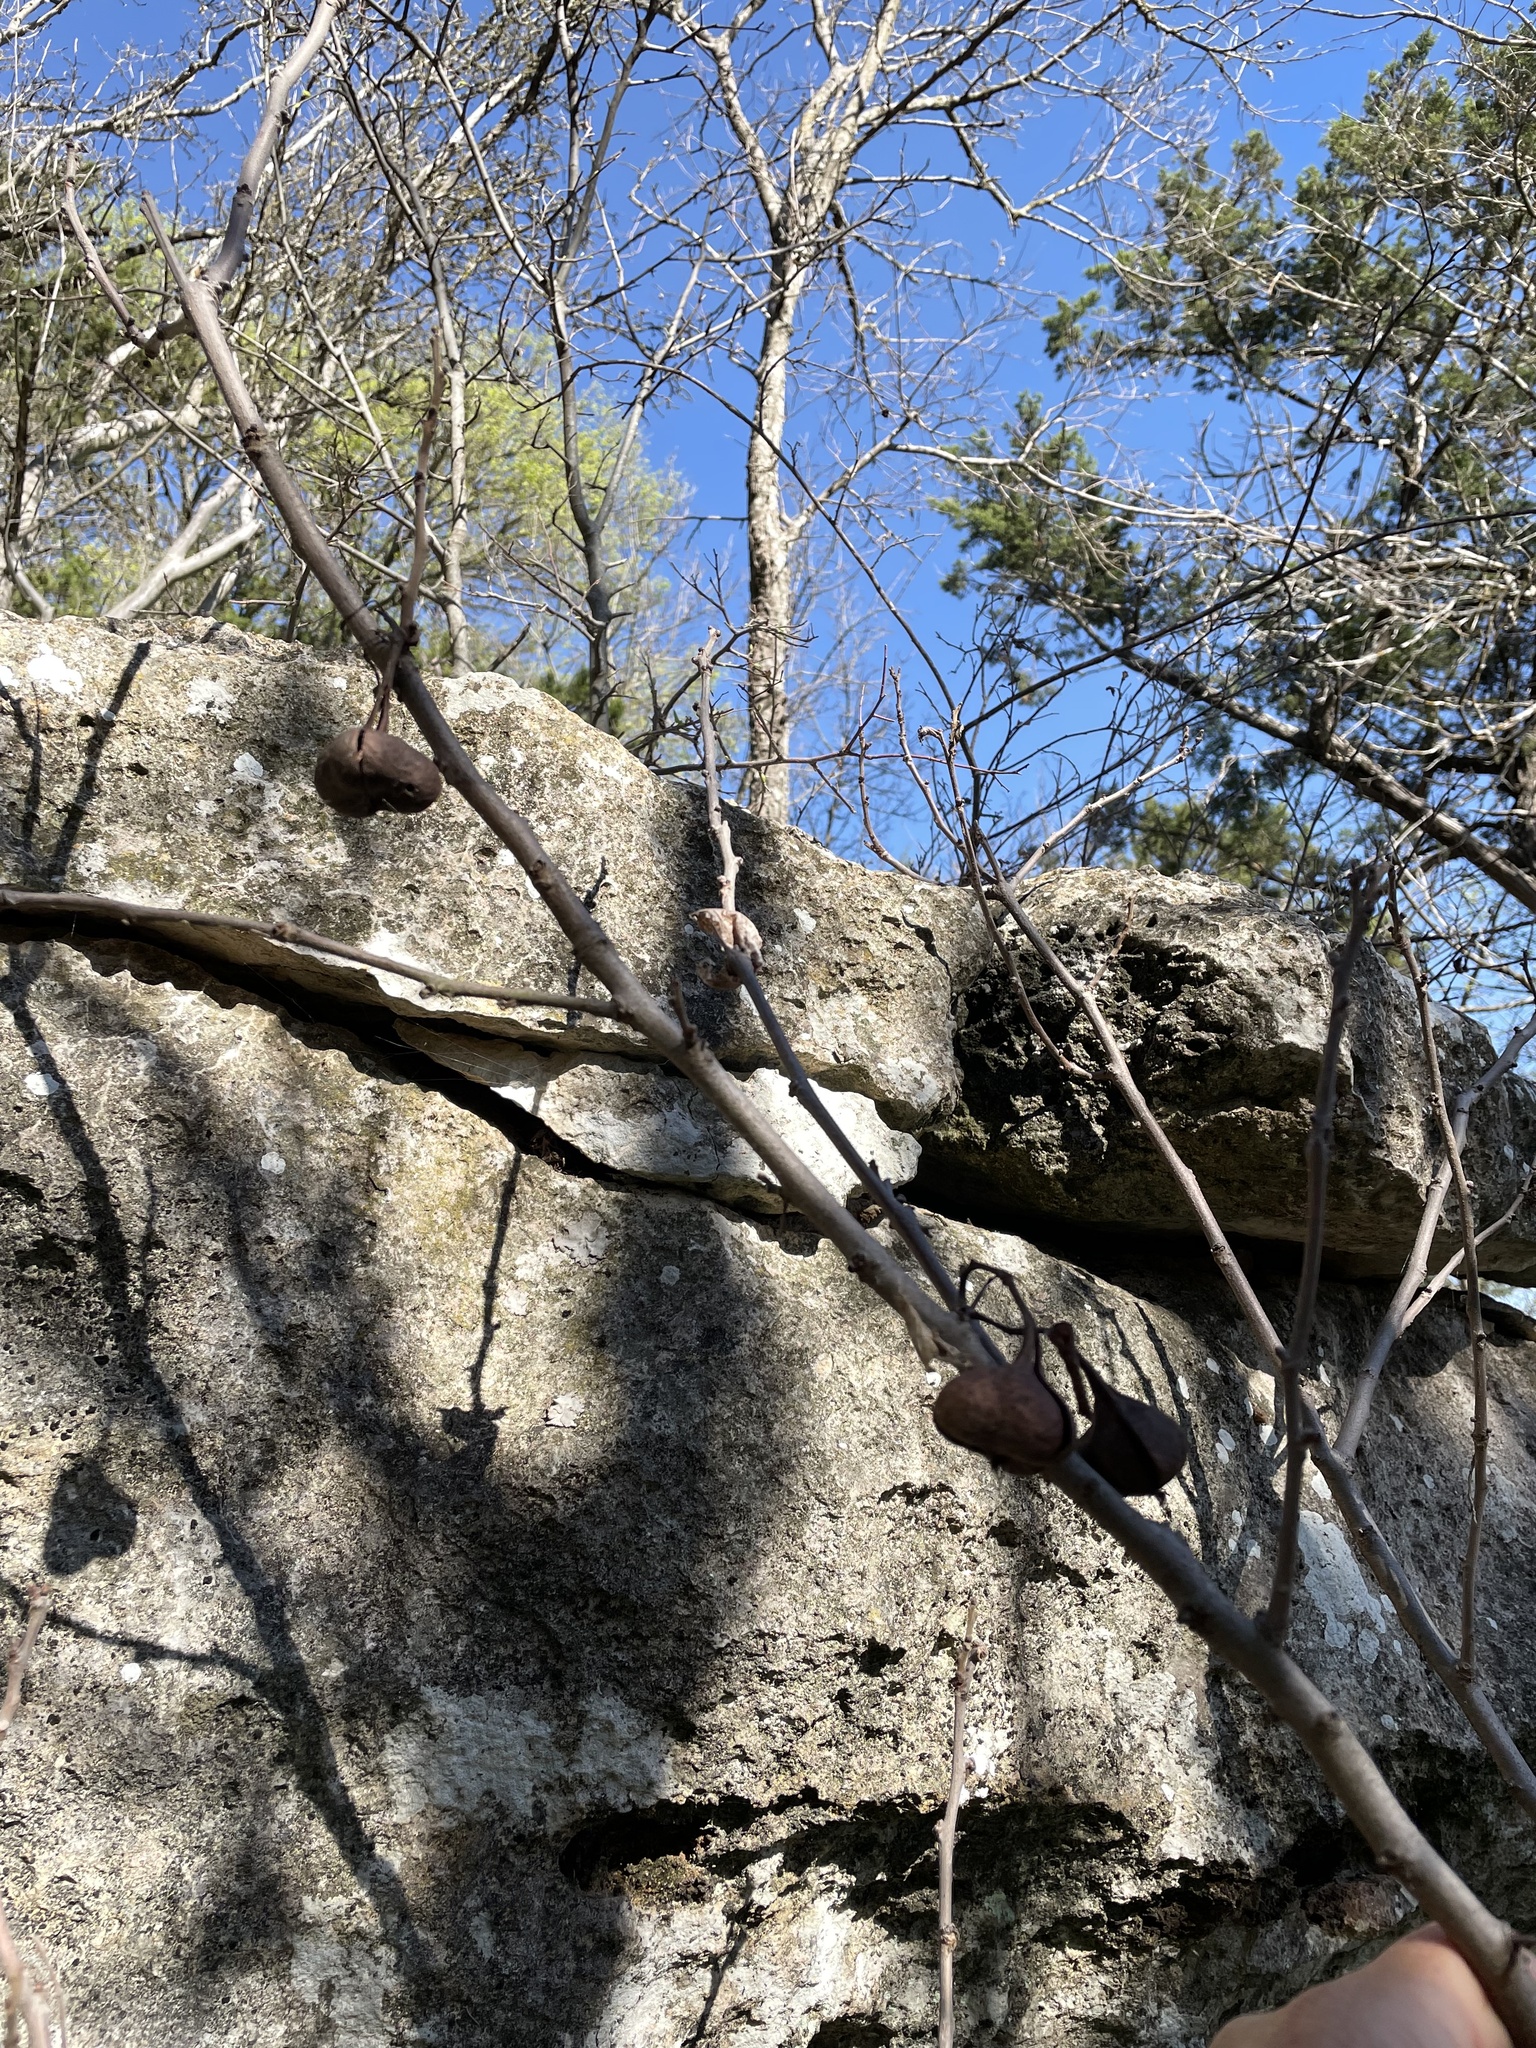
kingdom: Plantae
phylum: Tracheophyta
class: Magnoliopsida
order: Sapindales
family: Sapindaceae
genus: Ungnadia
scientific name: Ungnadia speciosa
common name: Texas-buckeye
